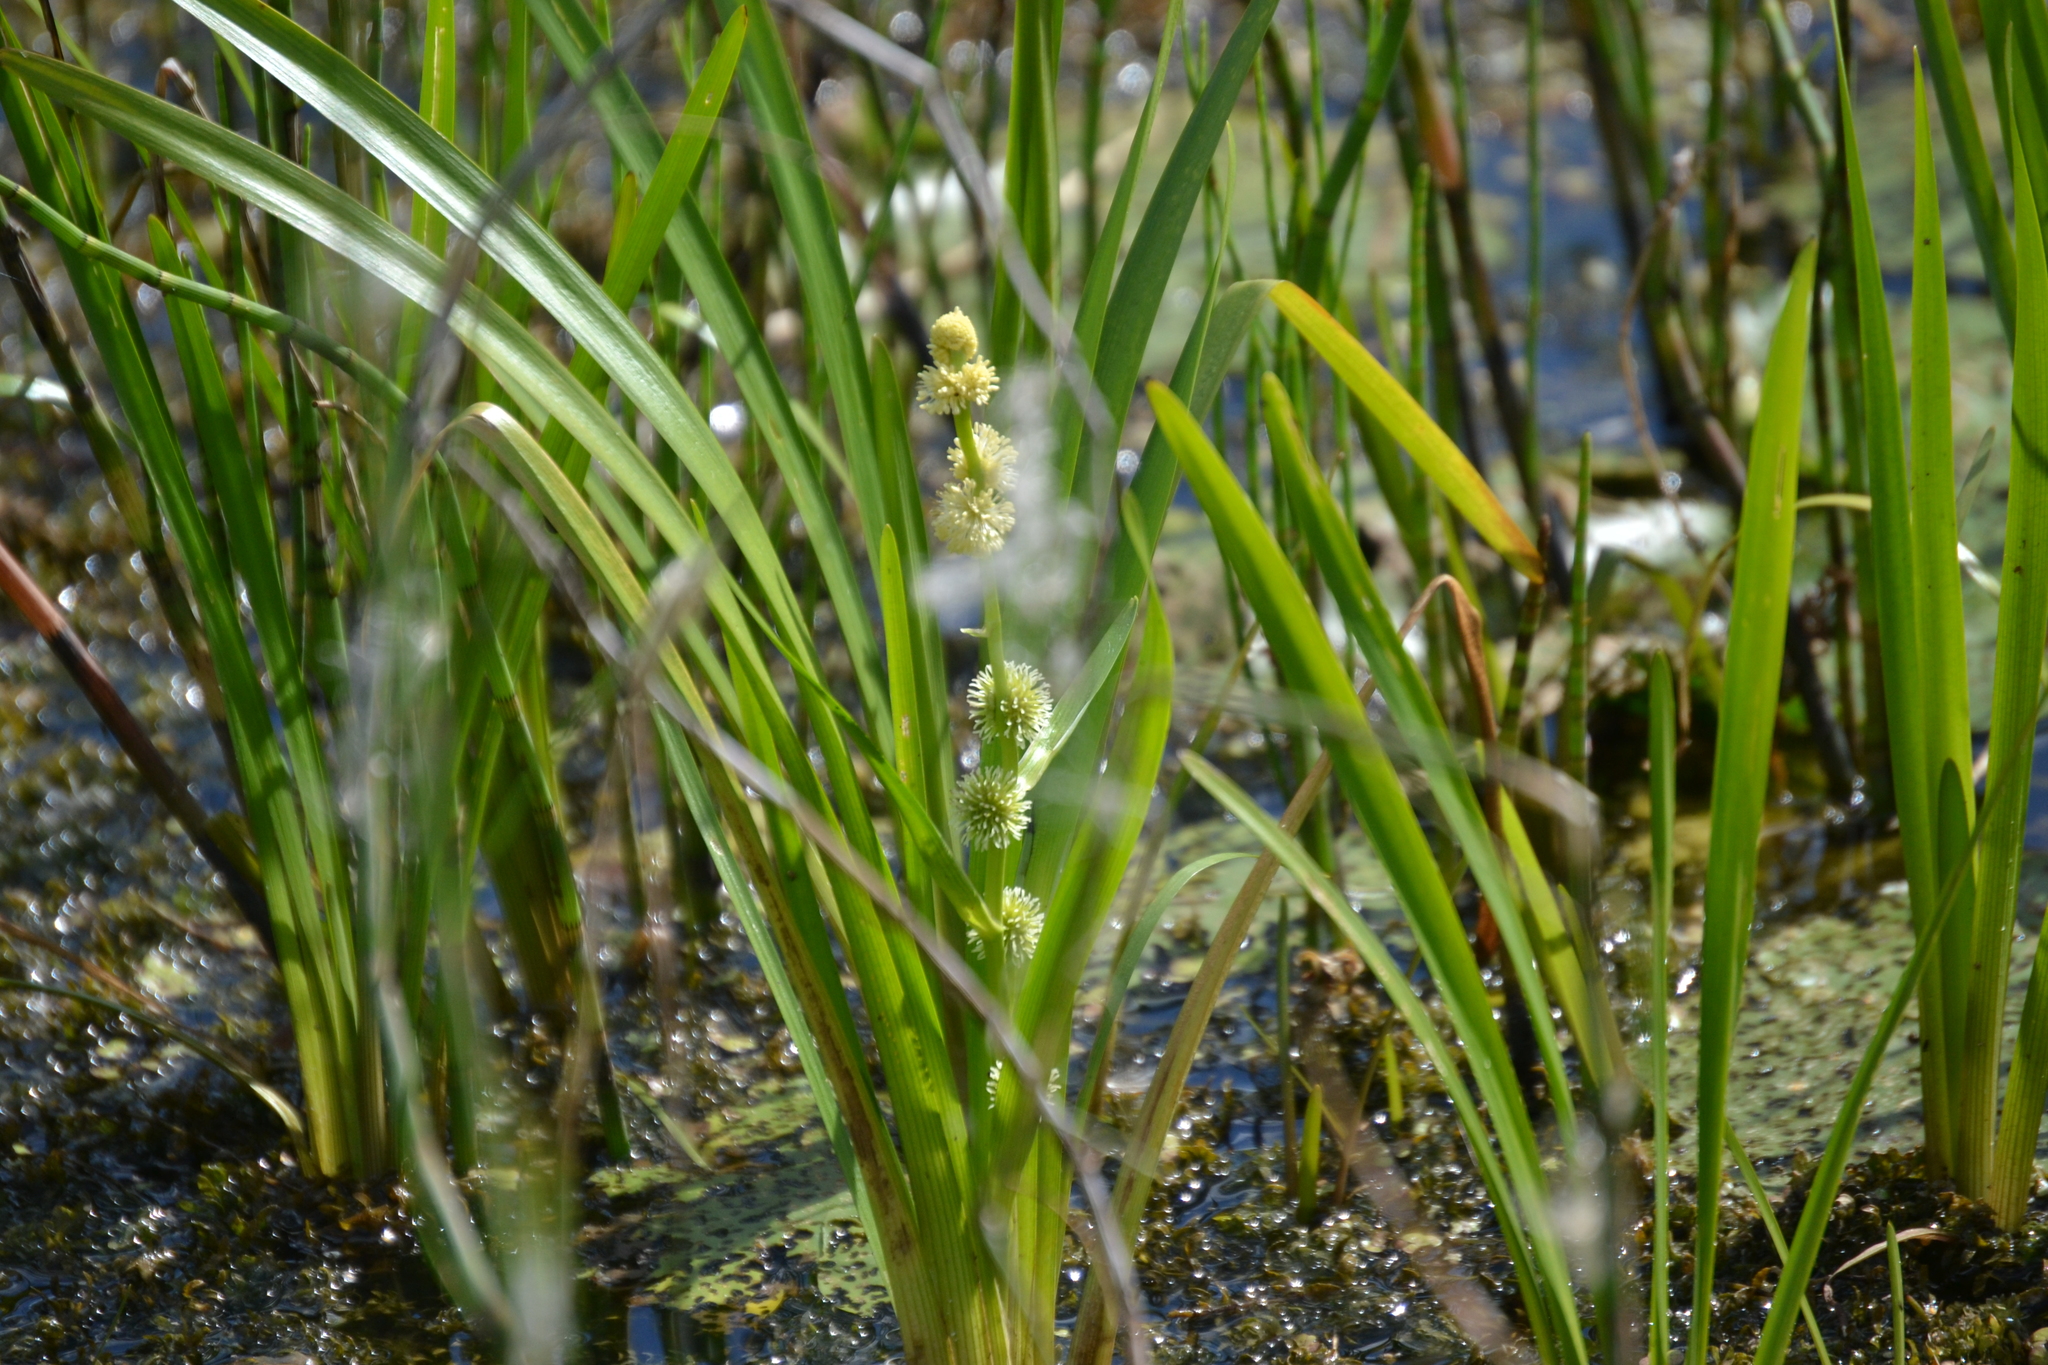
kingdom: Plantae
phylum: Tracheophyta
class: Liliopsida
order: Poales
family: Typhaceae
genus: Sparganium
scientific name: Sparganium emersum
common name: Unbranched bur-reed
